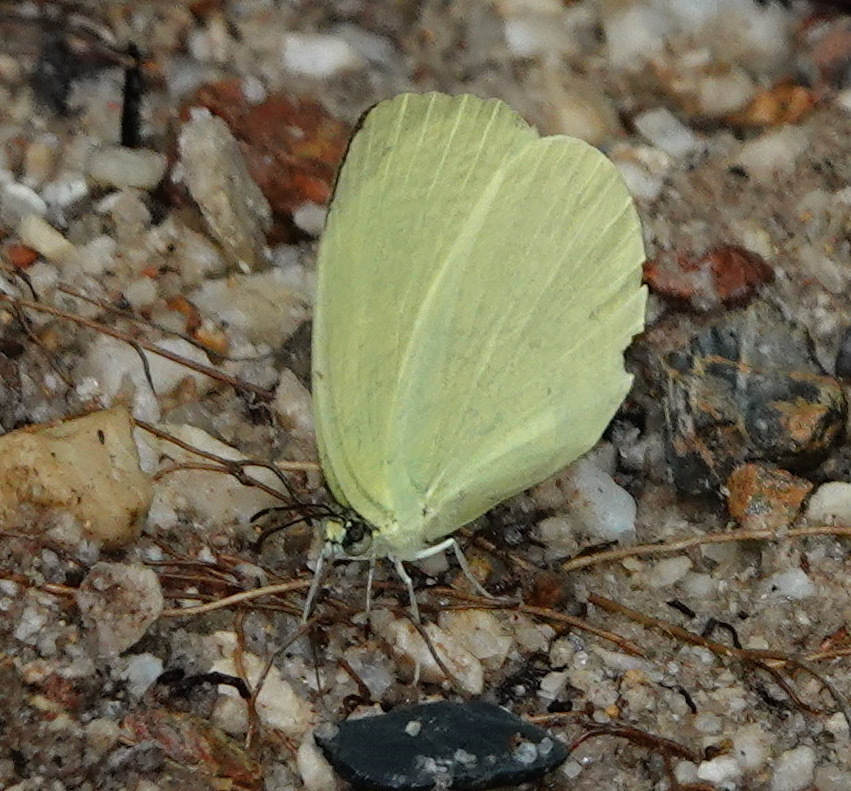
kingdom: Animalia
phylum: Arthropoda
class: Insecta
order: Lepidoptera
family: Pieridae
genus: Gandaca
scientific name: Gandaca harina
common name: Tree yellow
